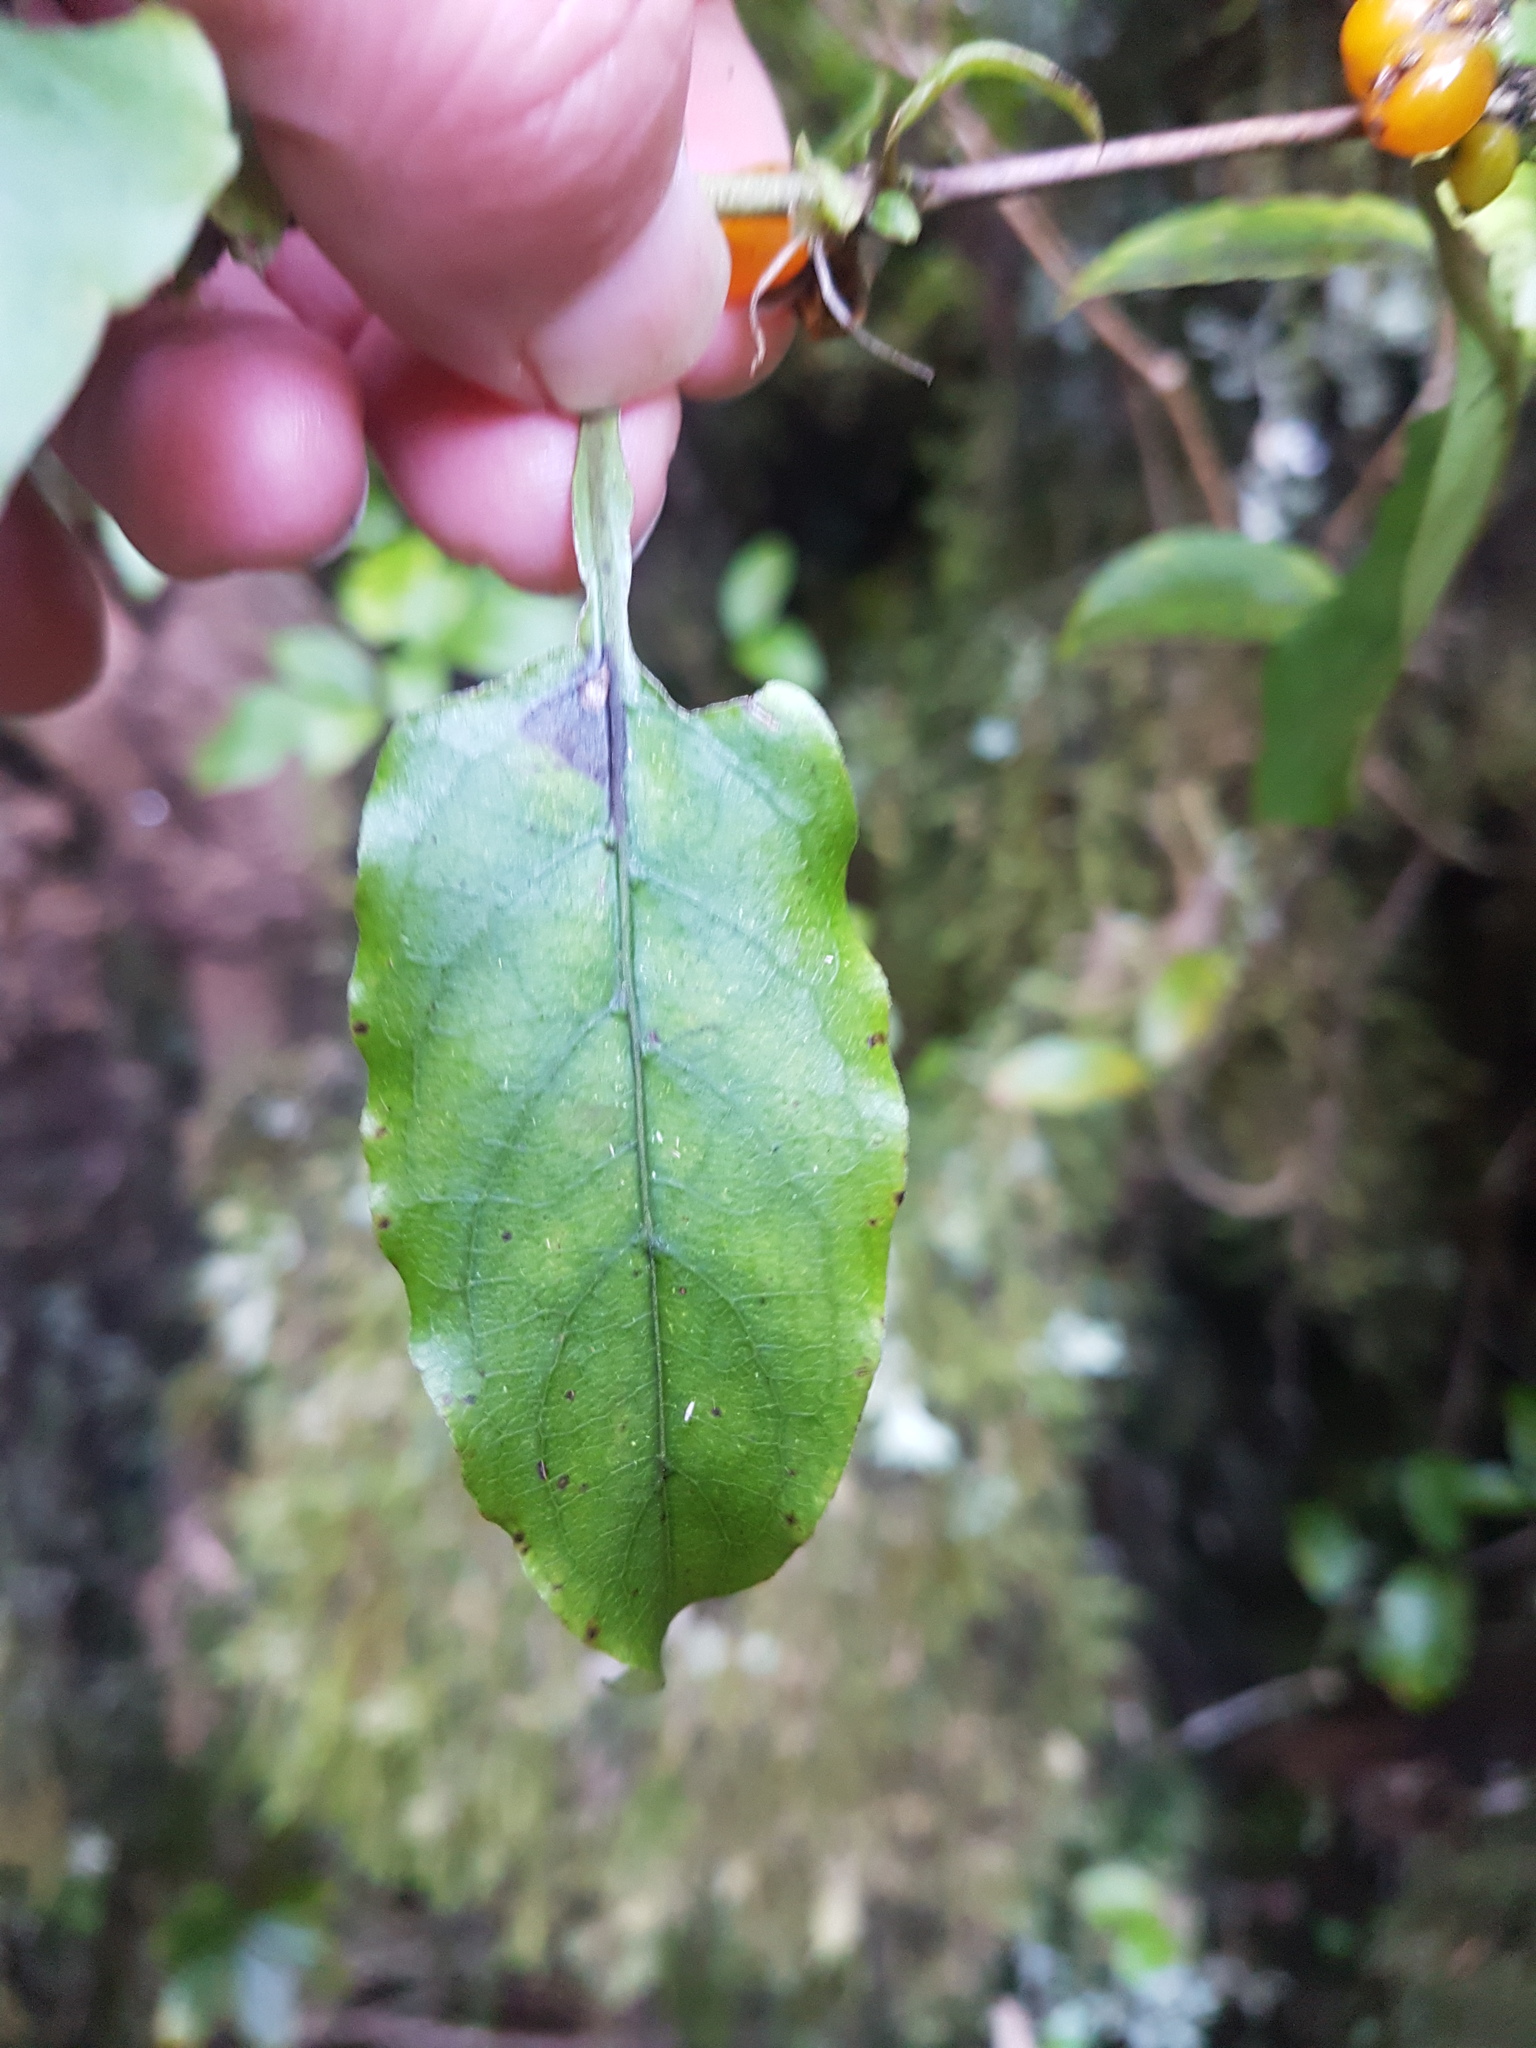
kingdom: Plantae
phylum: Tracheophyta
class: Magnoliopsida
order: Gentianales
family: Rubiaceae
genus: Coprosma
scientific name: Coprosma tenuifolia
